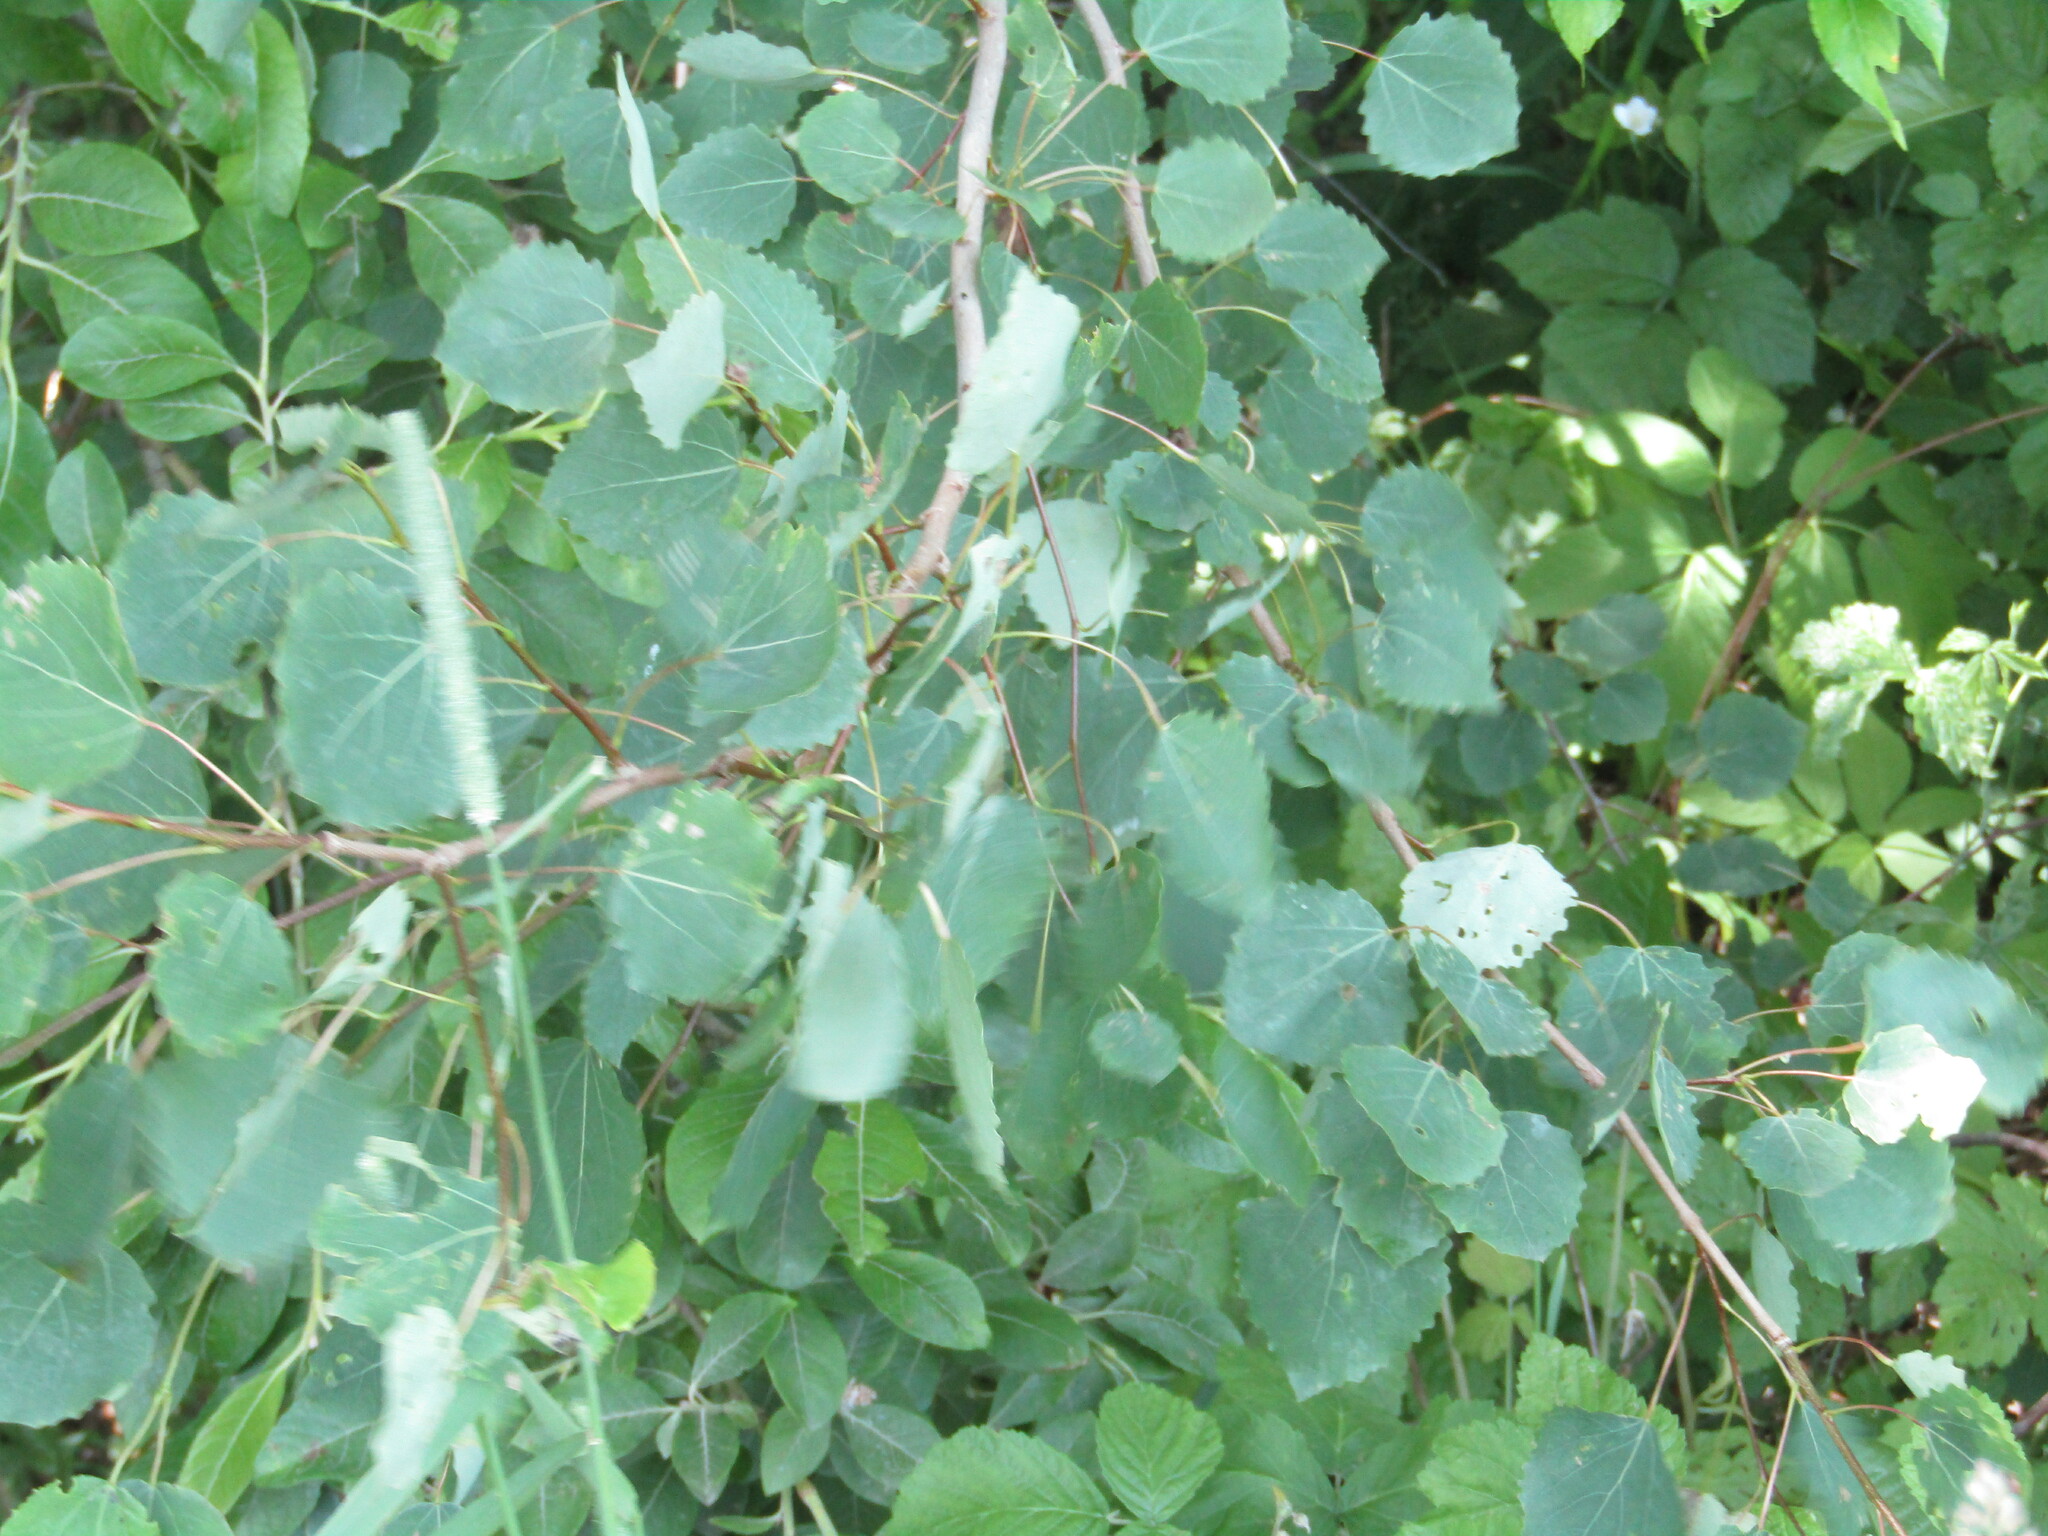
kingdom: Plantae
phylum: Tracheophyta
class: Magnoliopsida
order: Malpighiales
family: Salicaceae
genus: Populus
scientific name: Populus tremula
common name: European aspen
